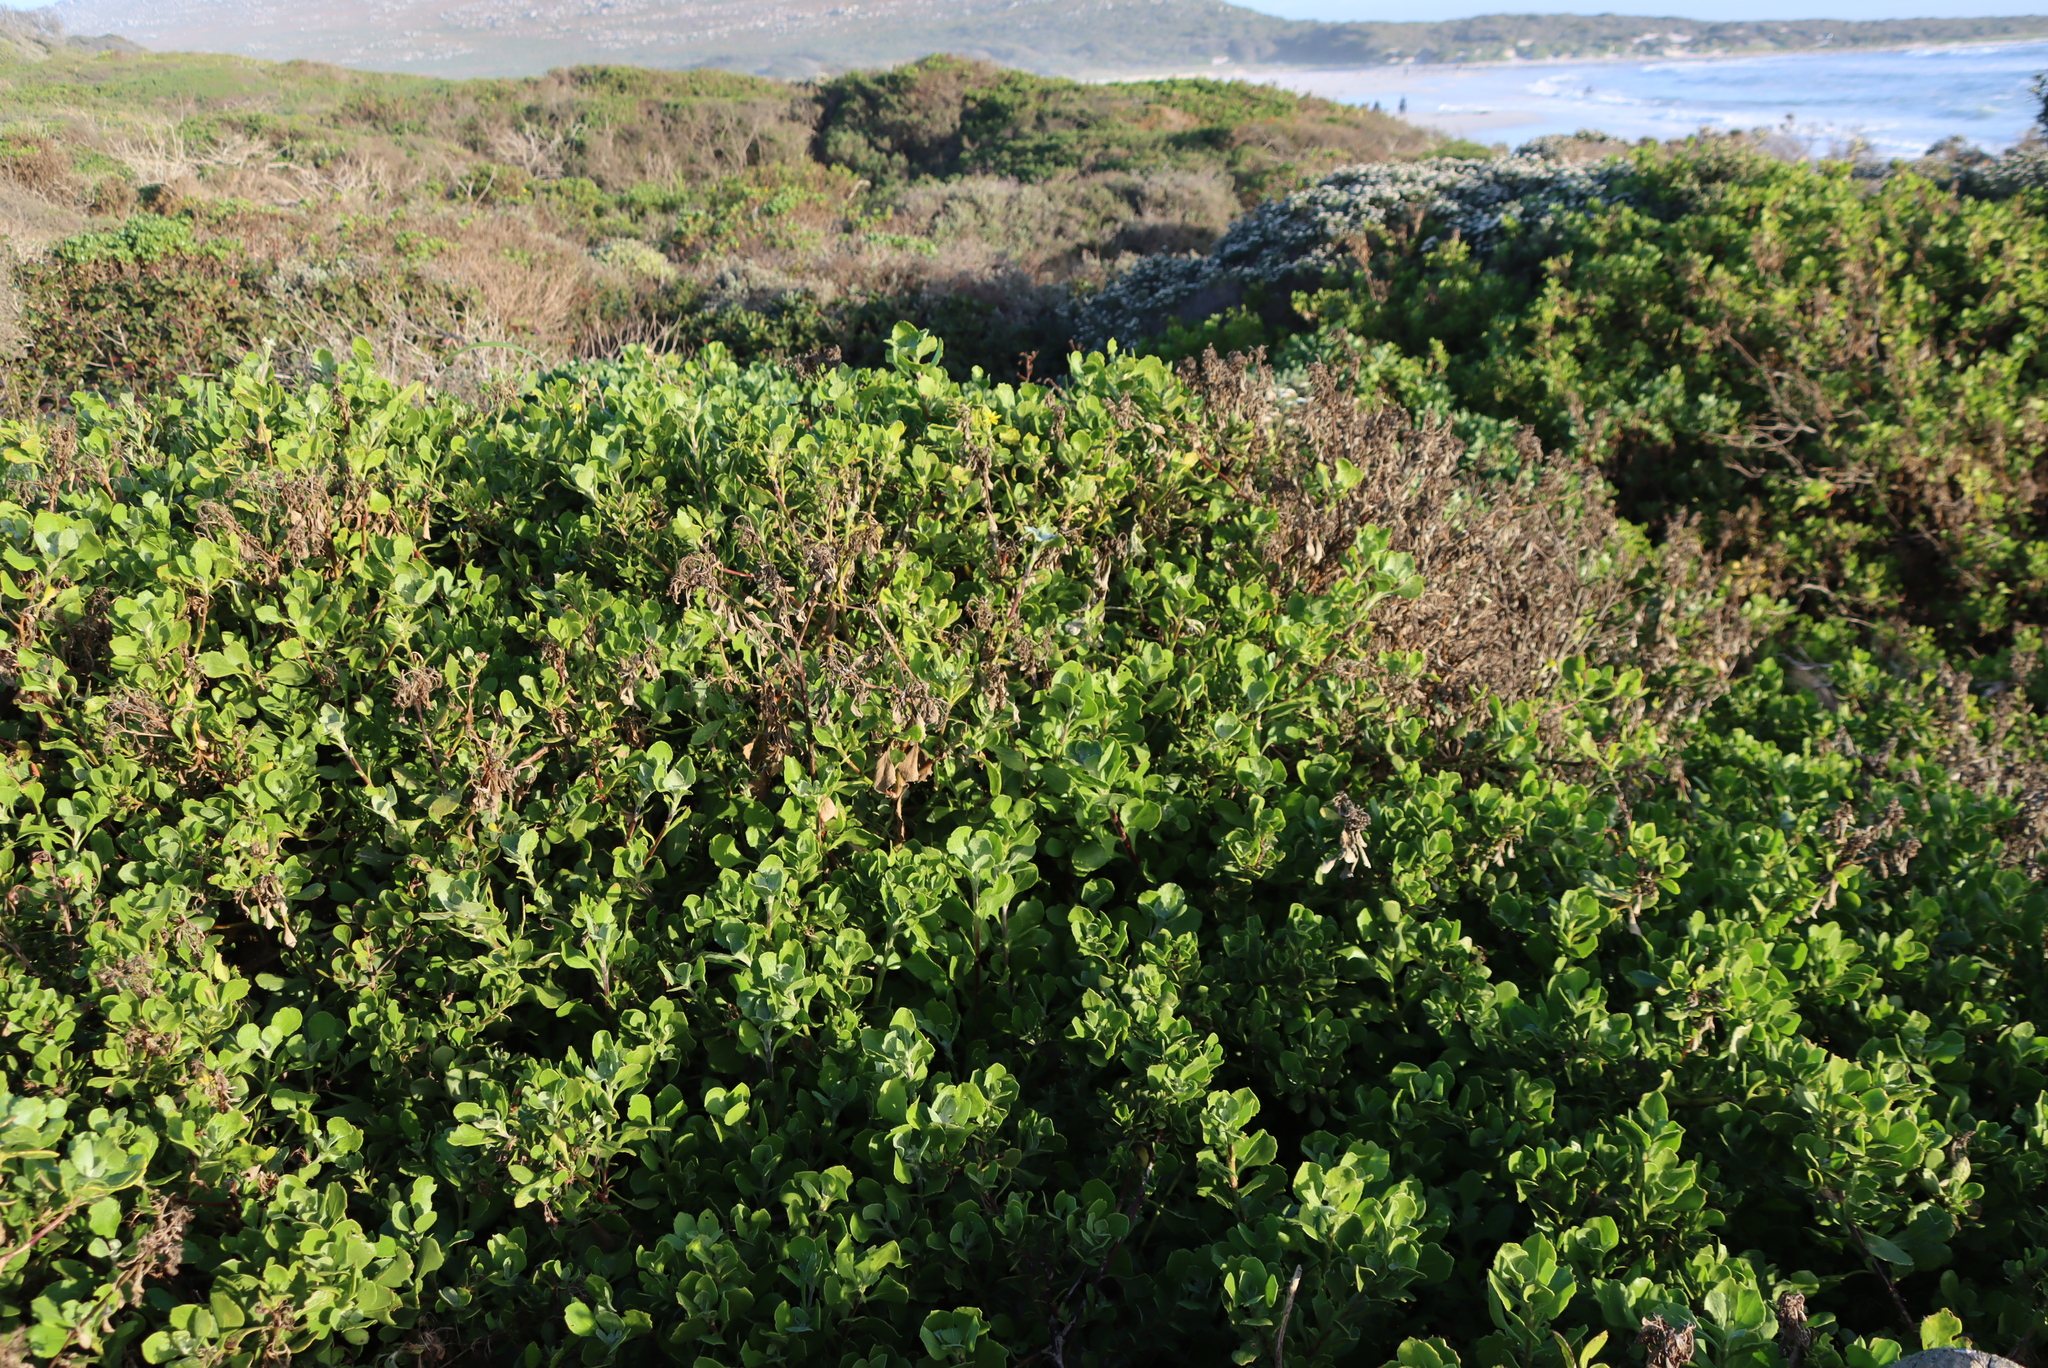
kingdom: Plantae
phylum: Tracheophyta
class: Magnoliopsida
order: Asterales
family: Asteraceae
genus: Osteospermum
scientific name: Osteospermum moniliferum
